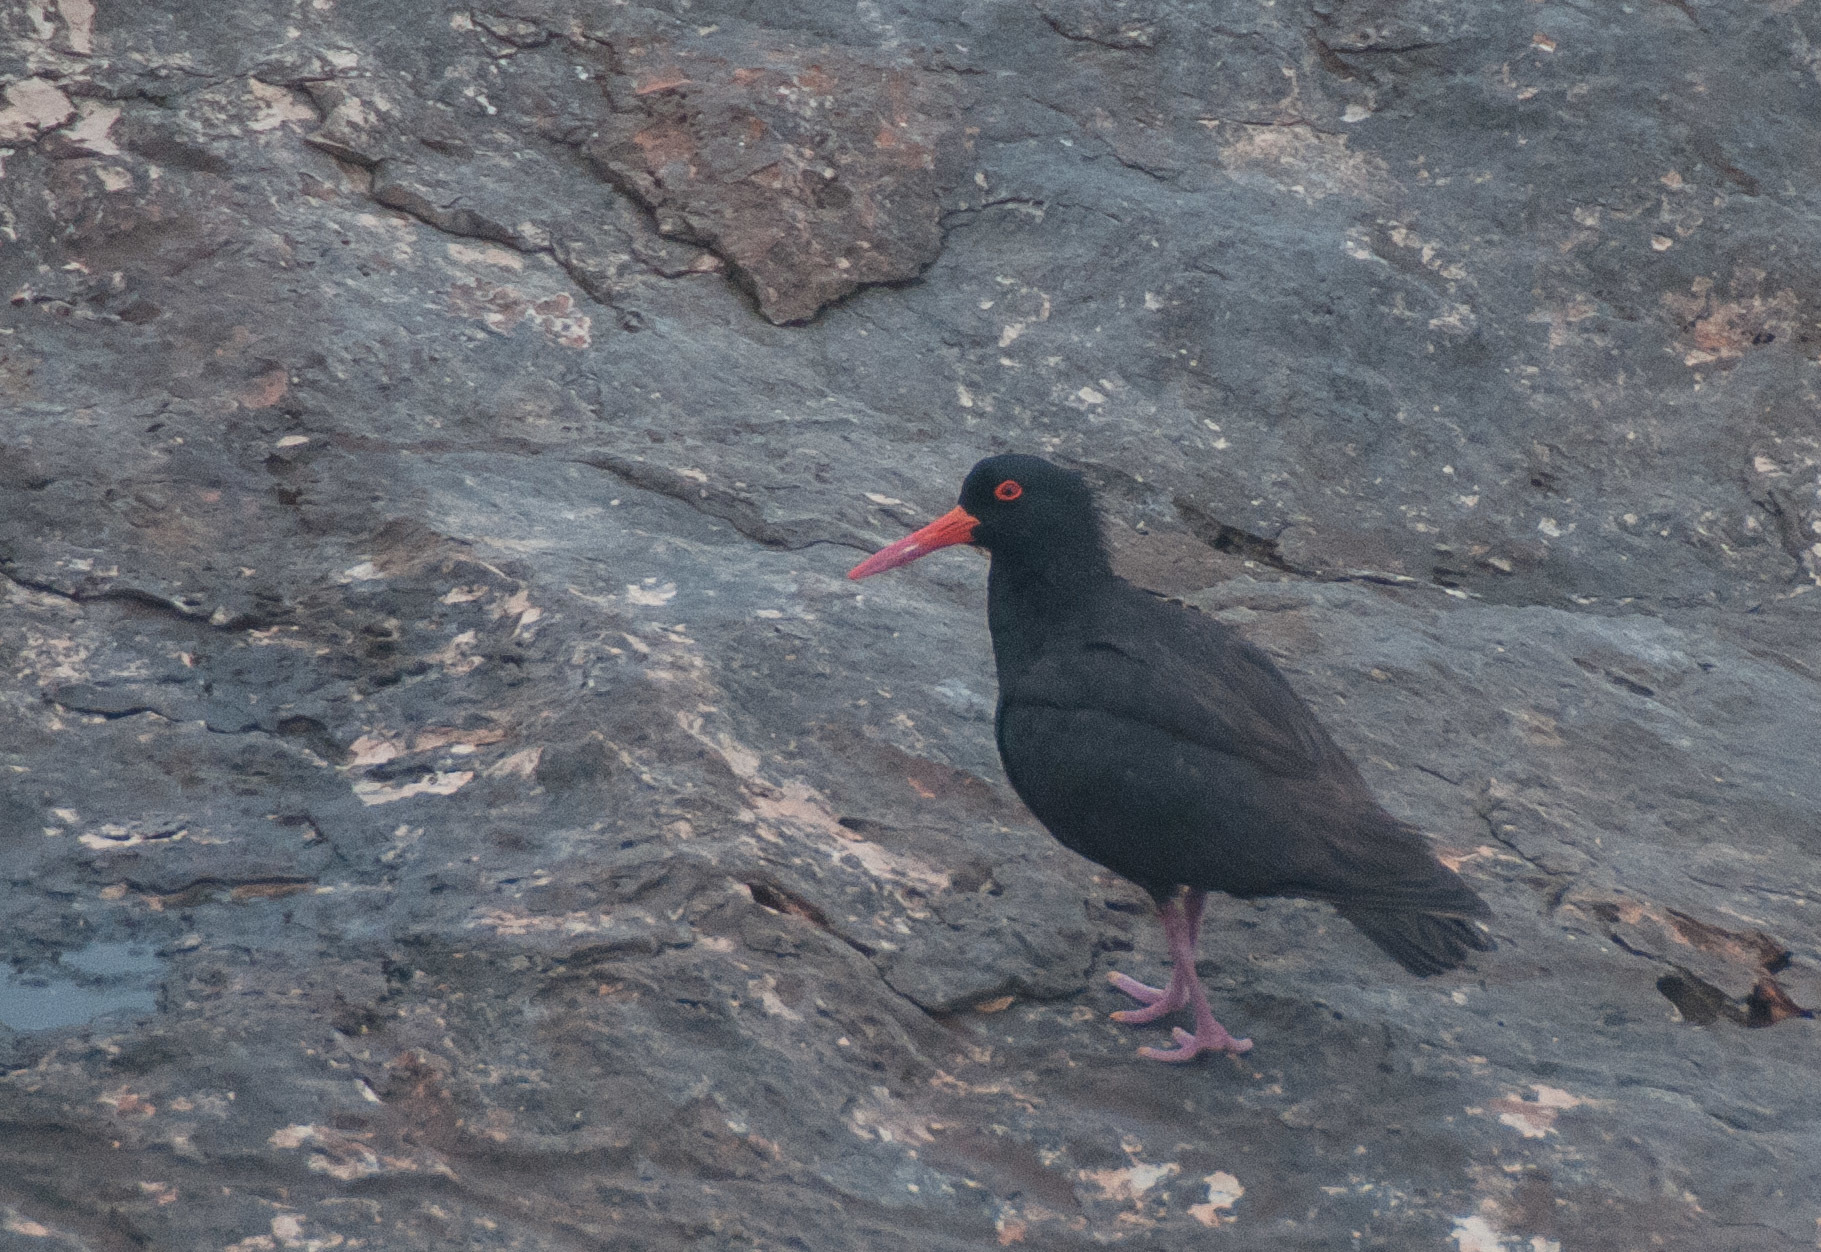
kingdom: Animalia
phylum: Chordata
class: Aves
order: Charadriiformes
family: Haematopodidae
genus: Haematopus
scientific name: Haematopus fuliginosus
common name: Sooty oystercatcher
